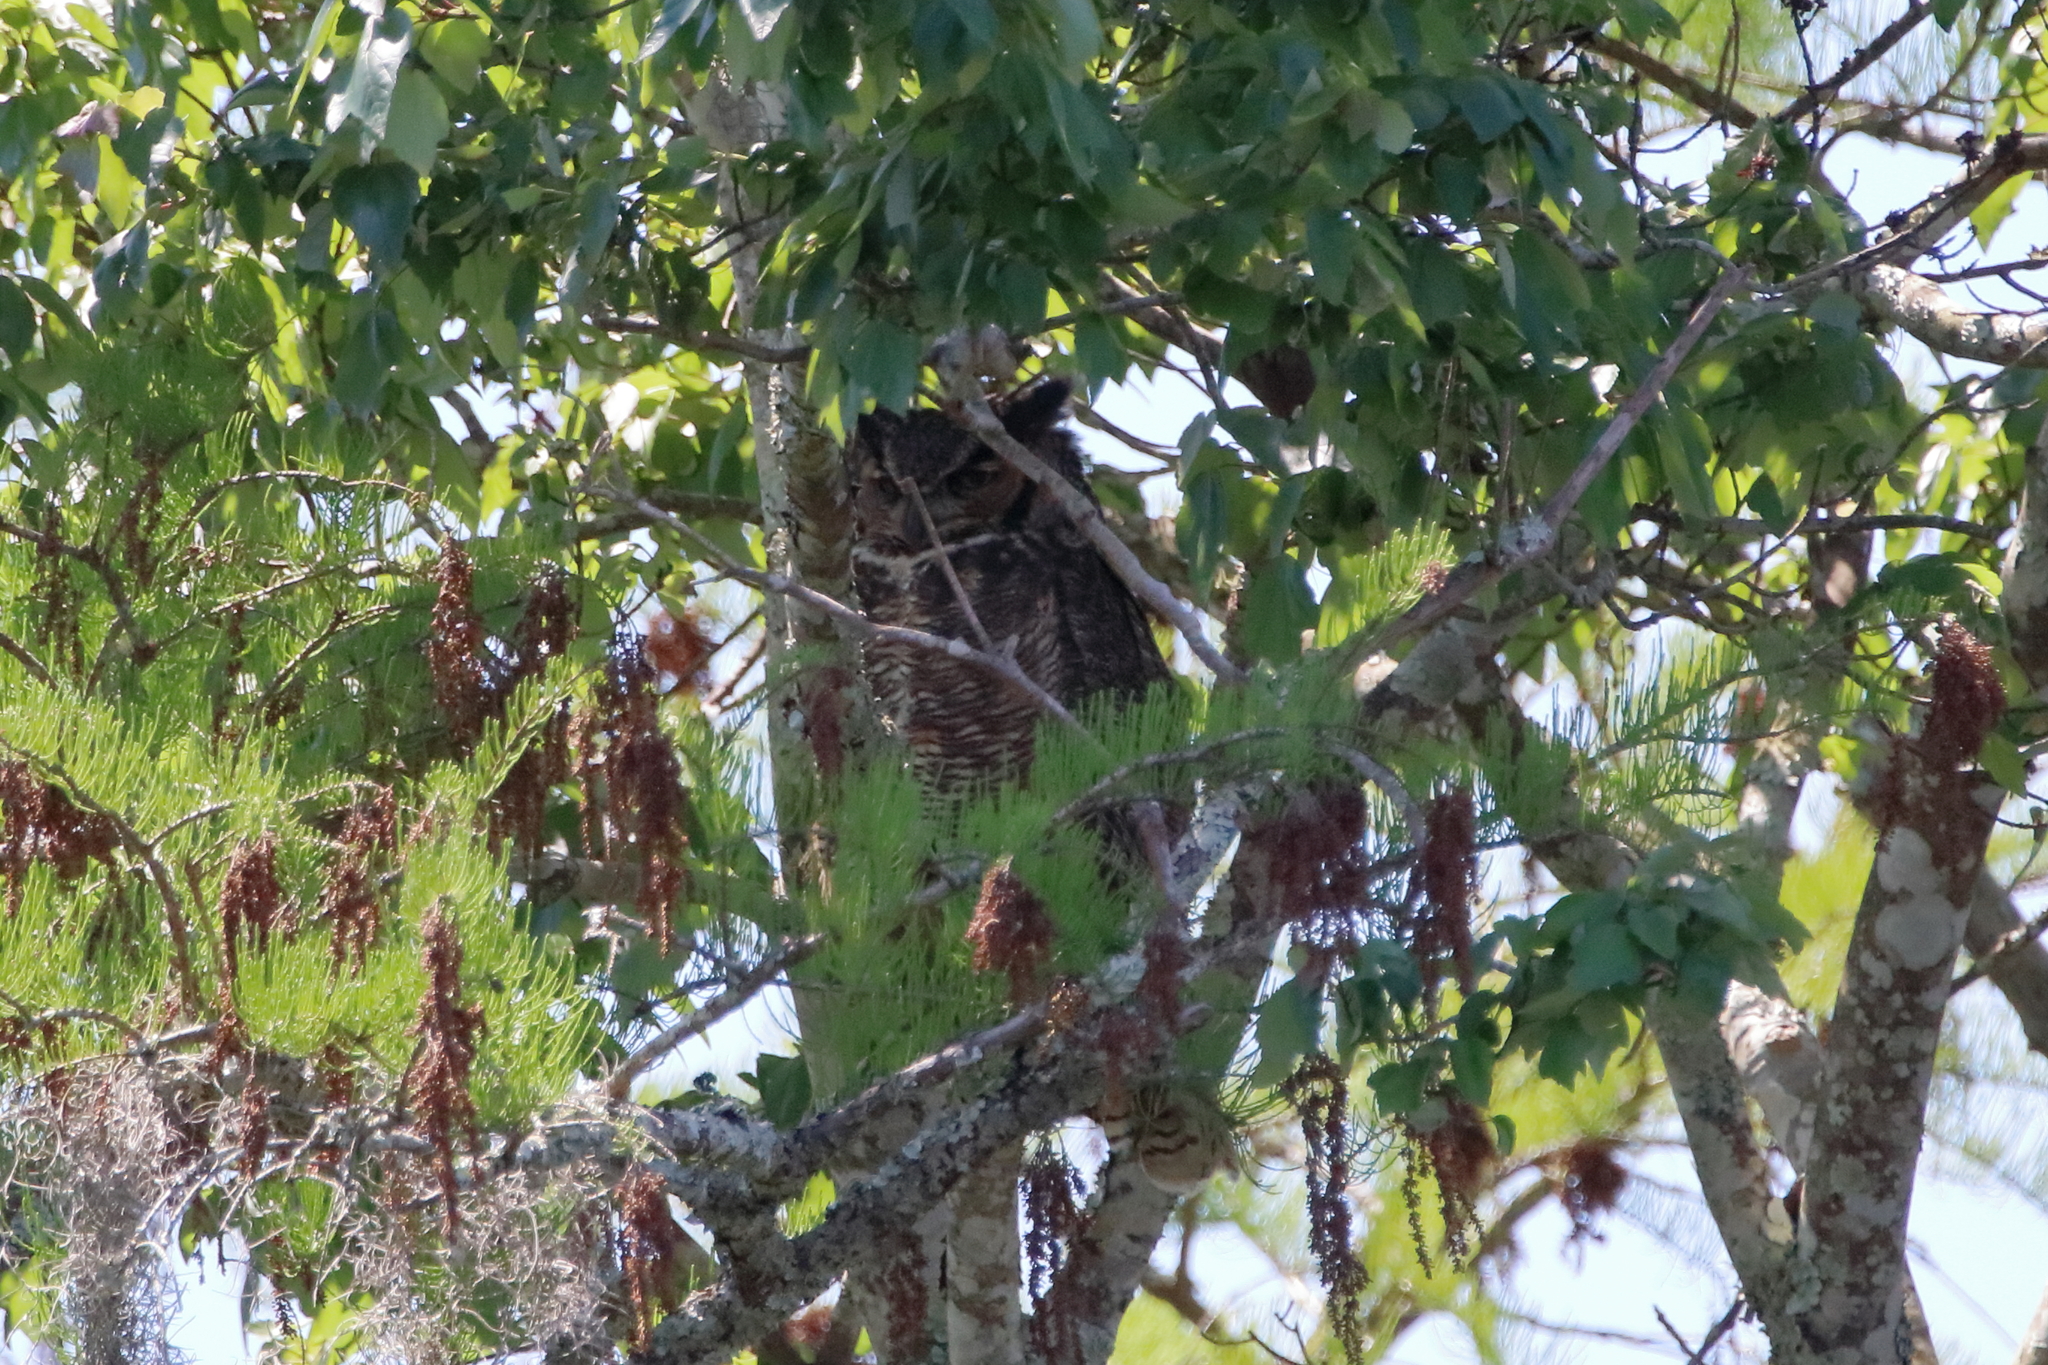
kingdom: Animalia
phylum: Chordata
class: Aves
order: Strigiformes
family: Strigidae
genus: Bubo
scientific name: Bubo virginianus
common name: Great horned owl
